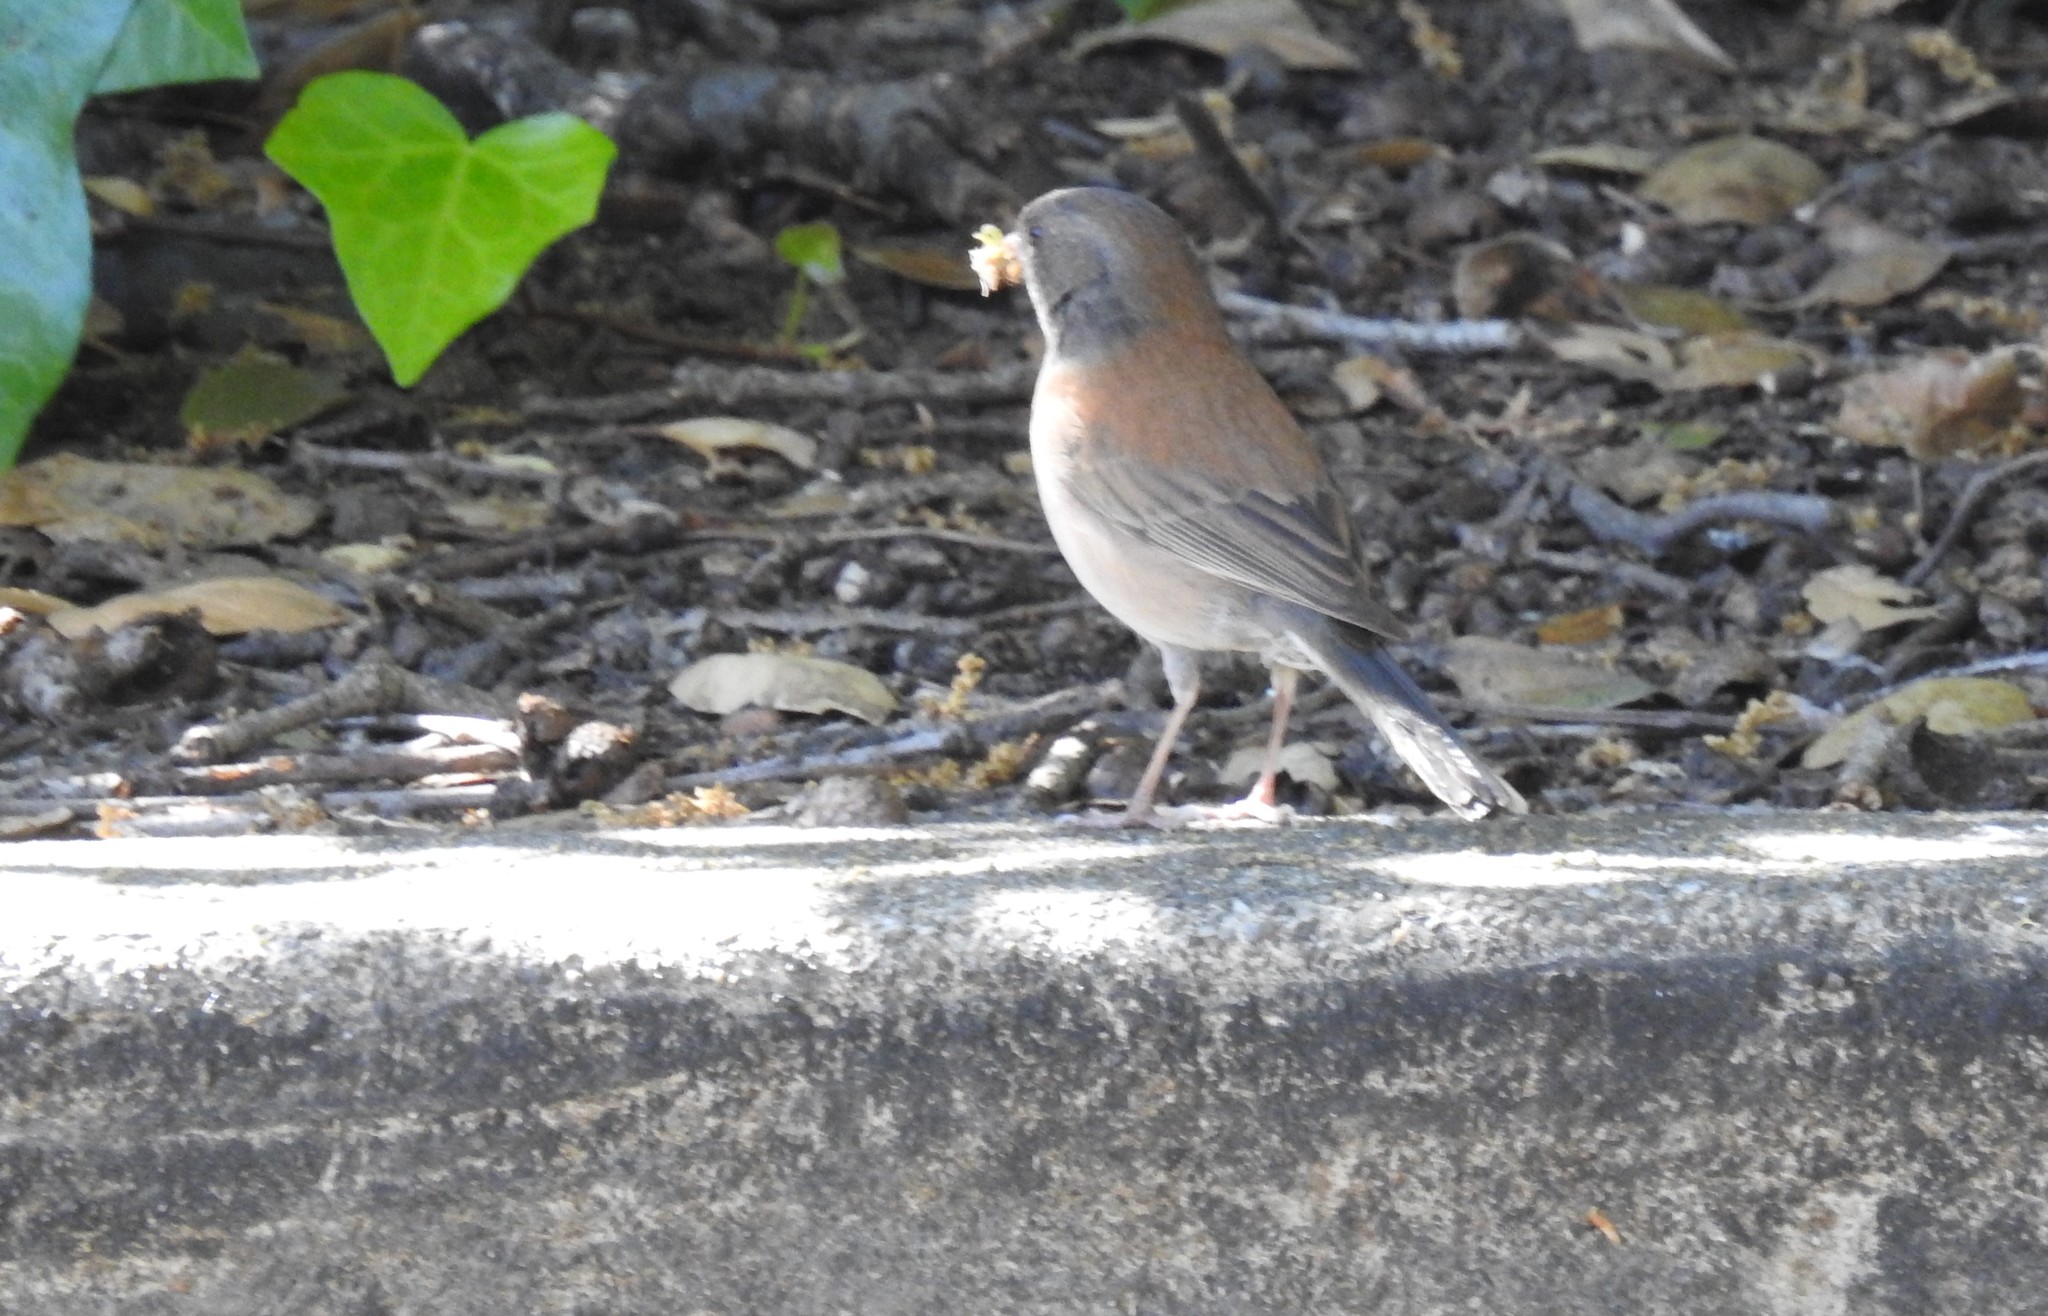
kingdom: Animalia
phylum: Chordata
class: Aves
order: Passeriformes
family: Passerellidae
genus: Junco
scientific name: Junco hyemalis
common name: Dark-eyed junco
